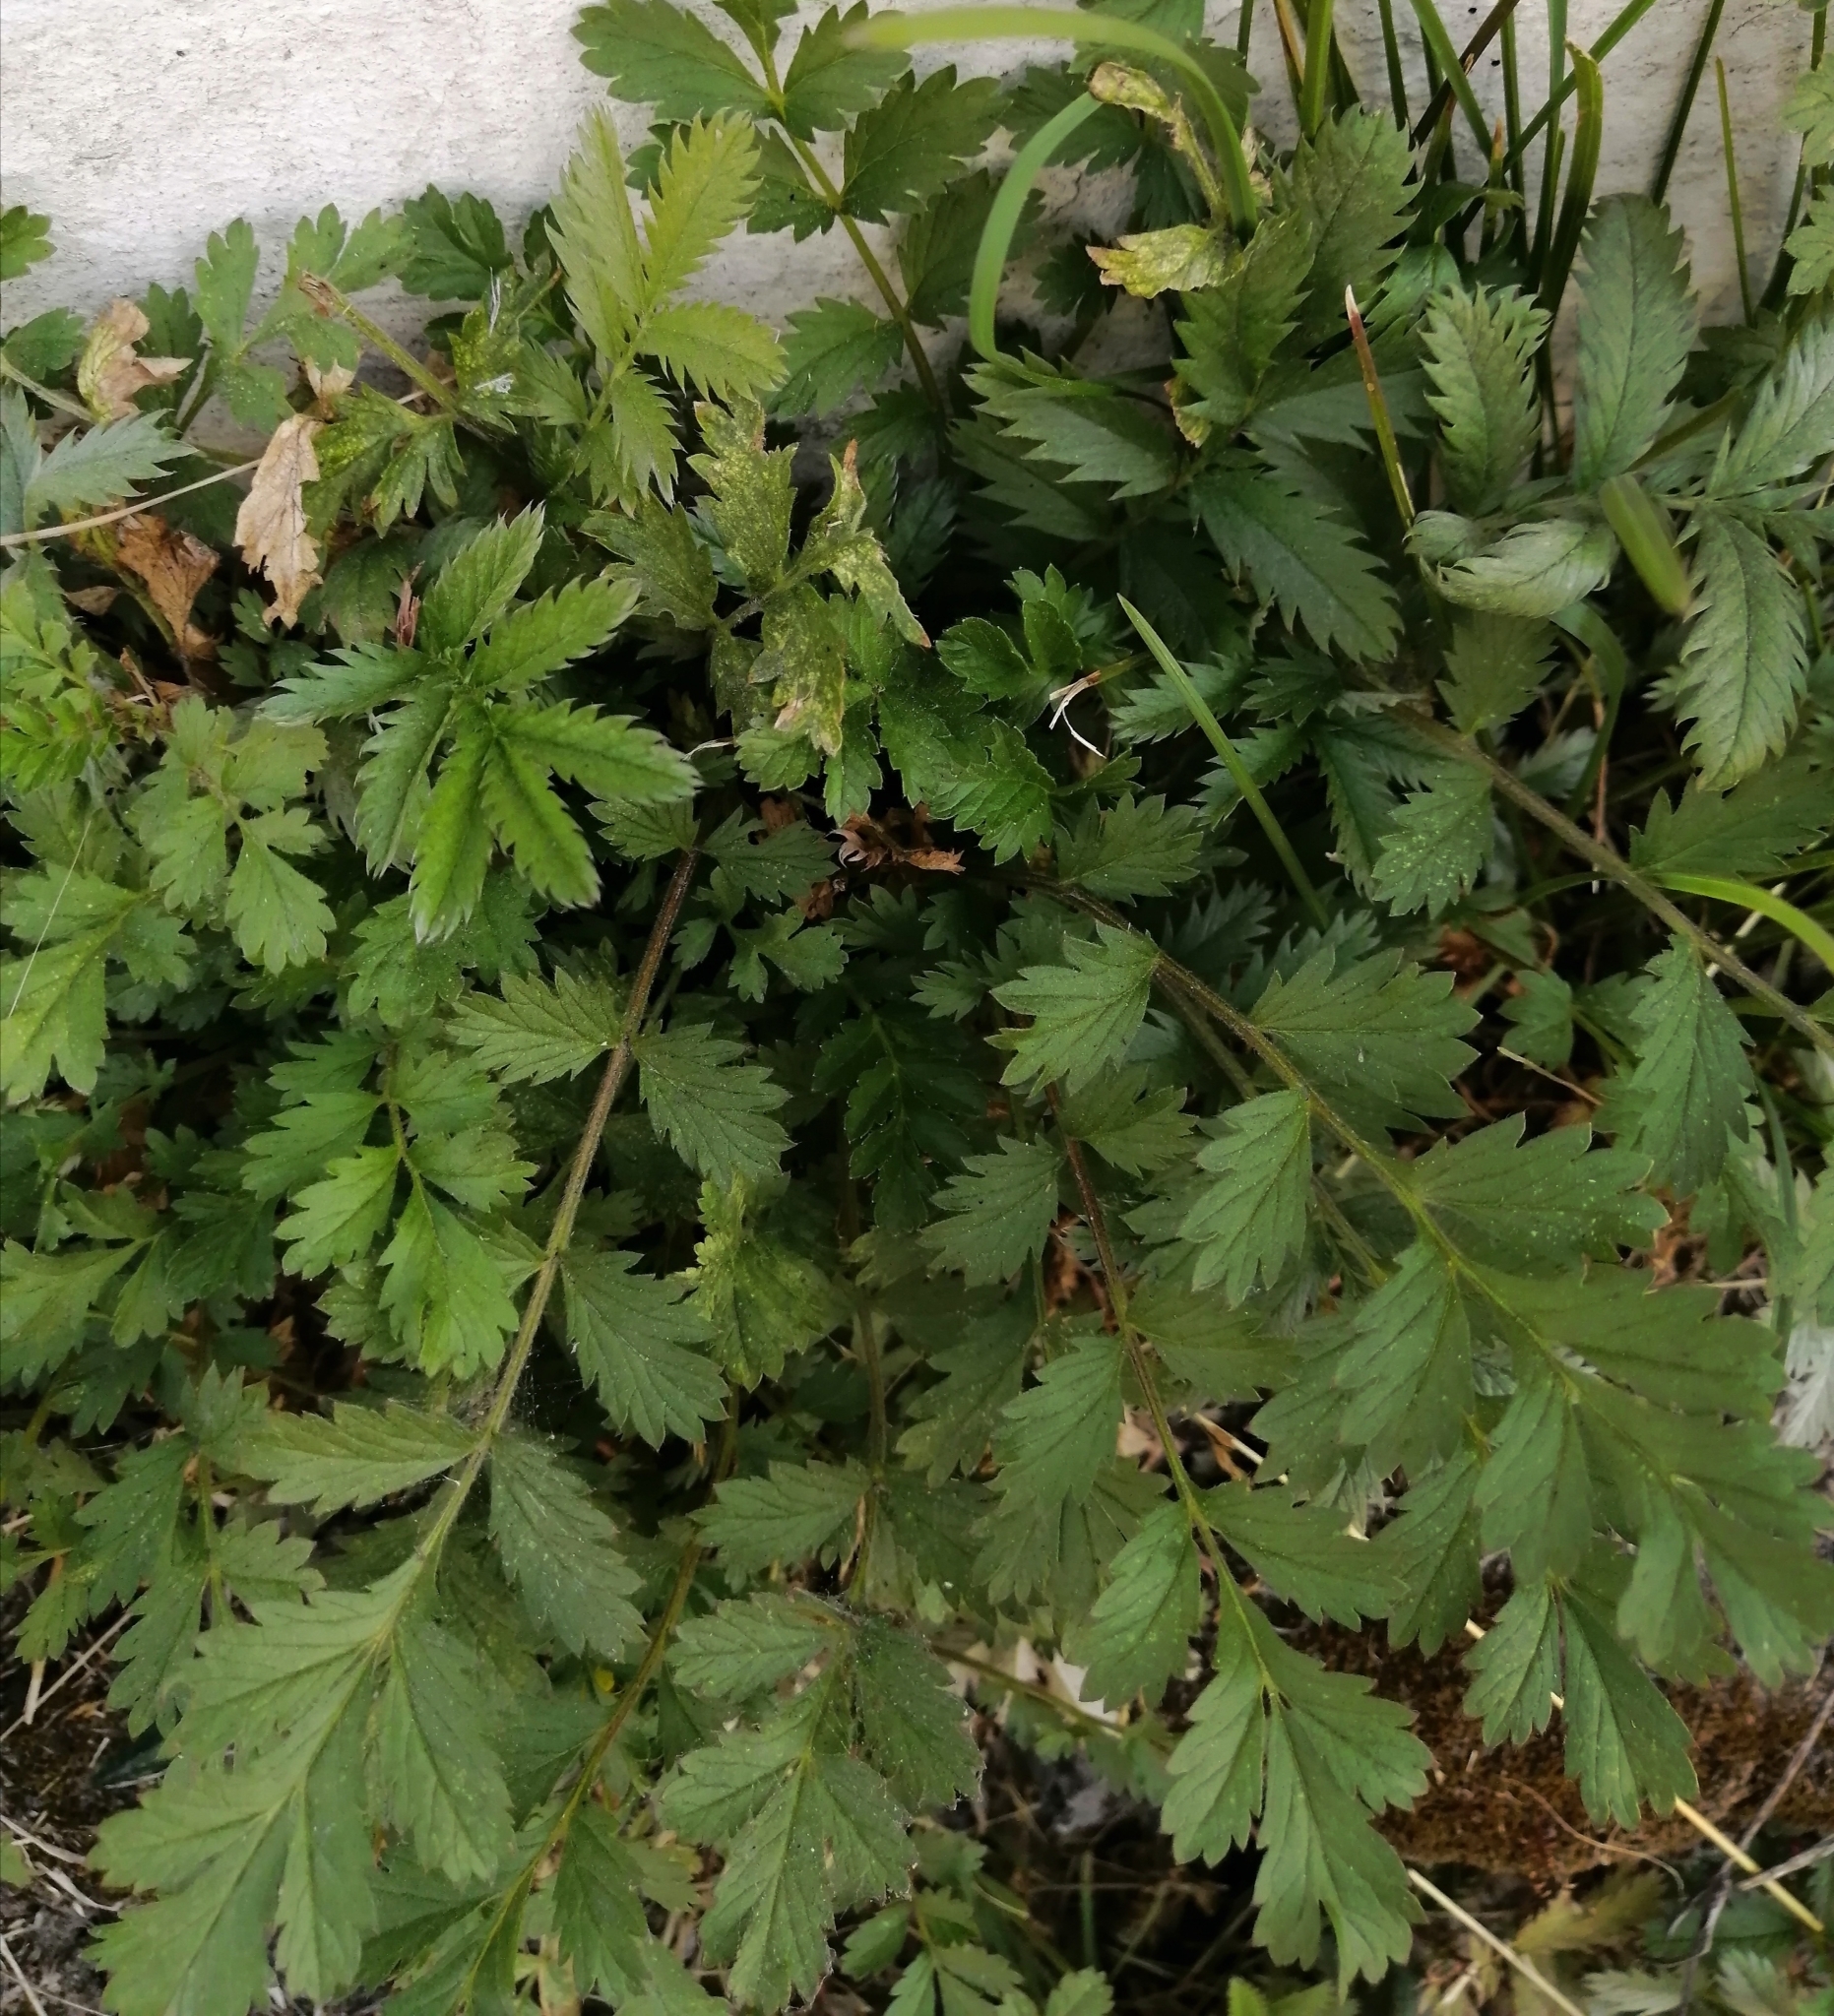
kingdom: Plantae
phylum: Tracheophyta
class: Magnoliopsida
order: Rosales
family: Rosaceae
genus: Argentina
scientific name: Argentina anserina
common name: Common silverweed
